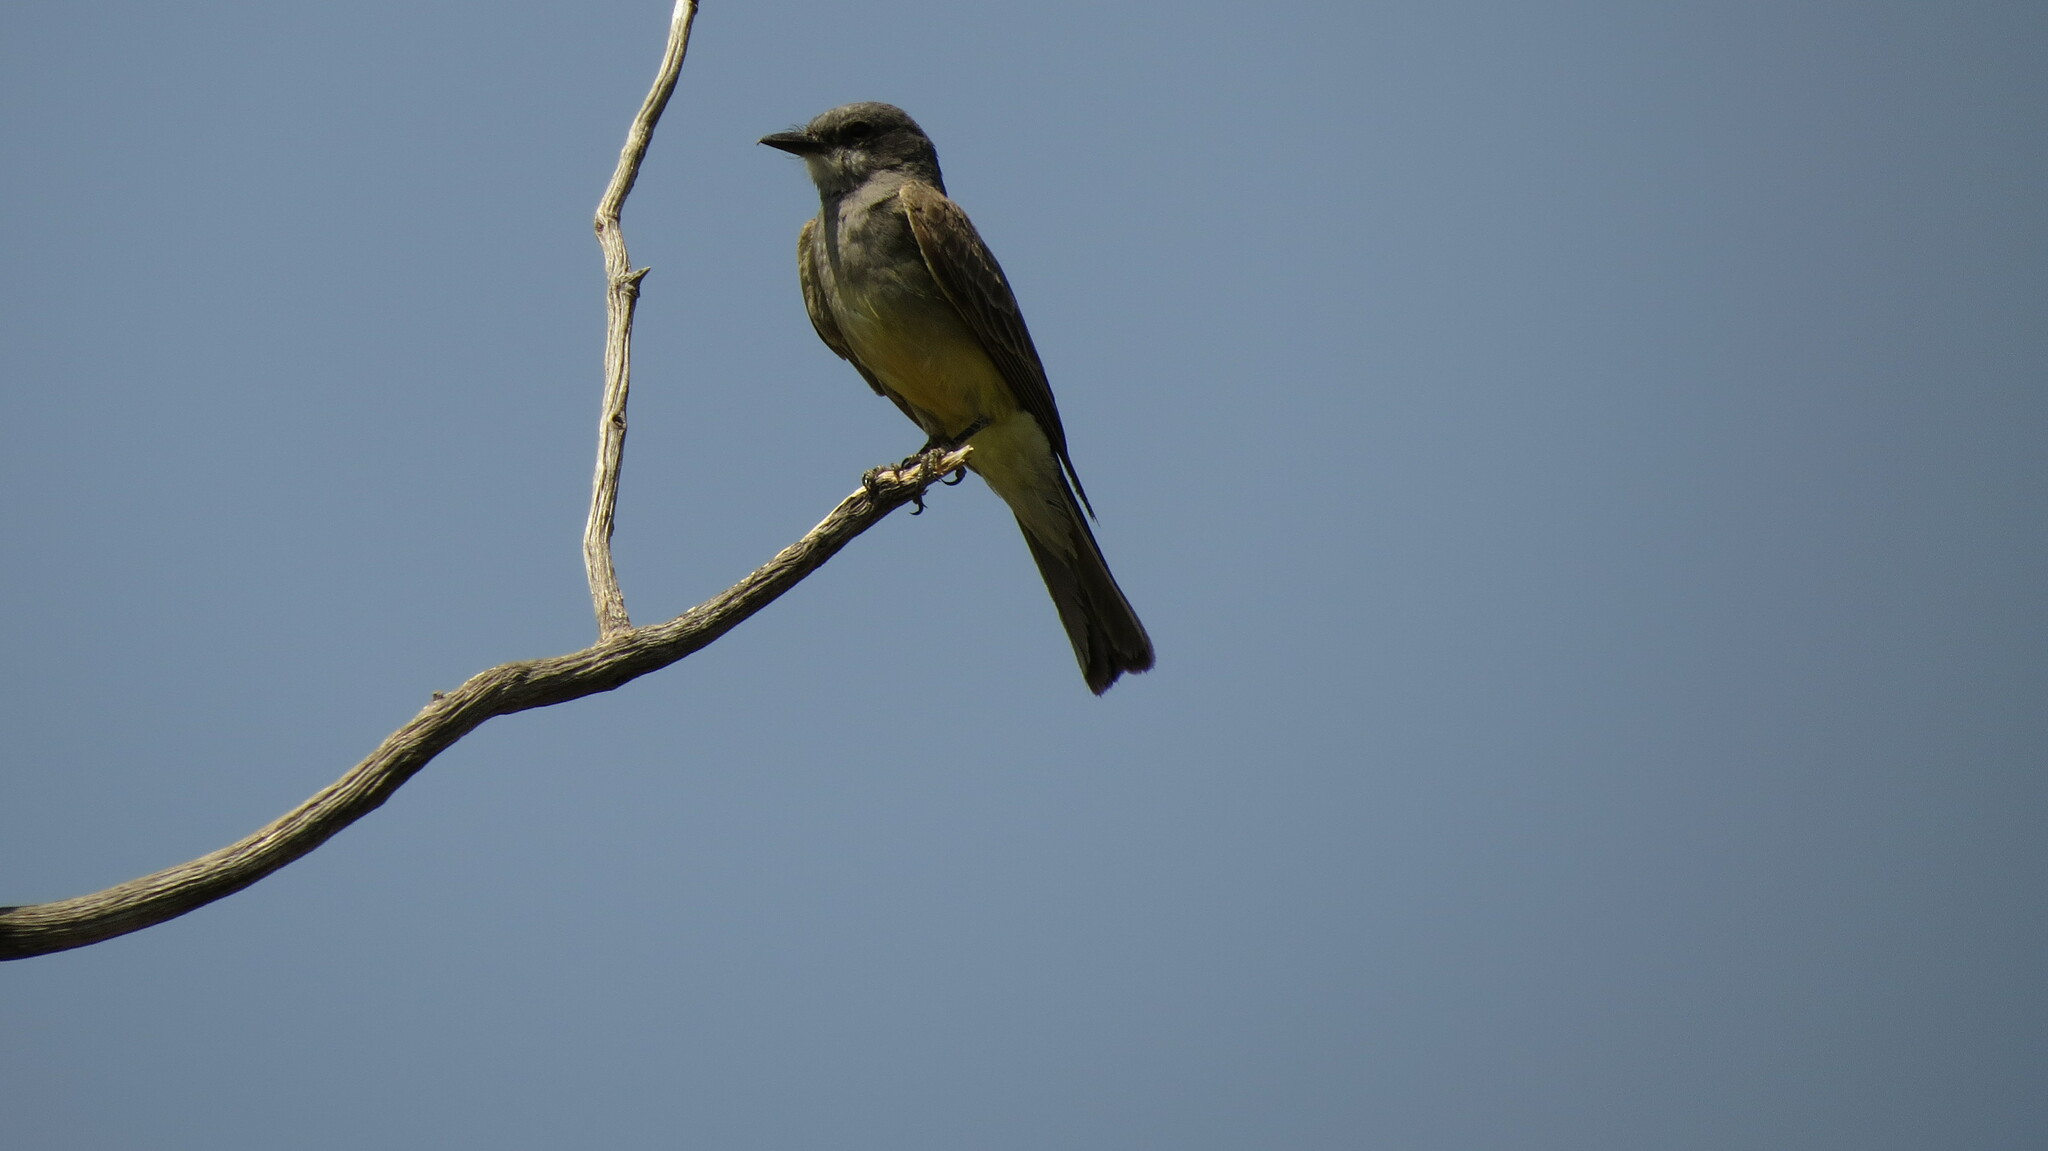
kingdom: Animalia
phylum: Chordata
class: Aves
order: Passeriformes
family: Tyrannidae
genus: Tyrannus
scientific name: Tyrannus vociferans
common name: Cassin's kingbird
